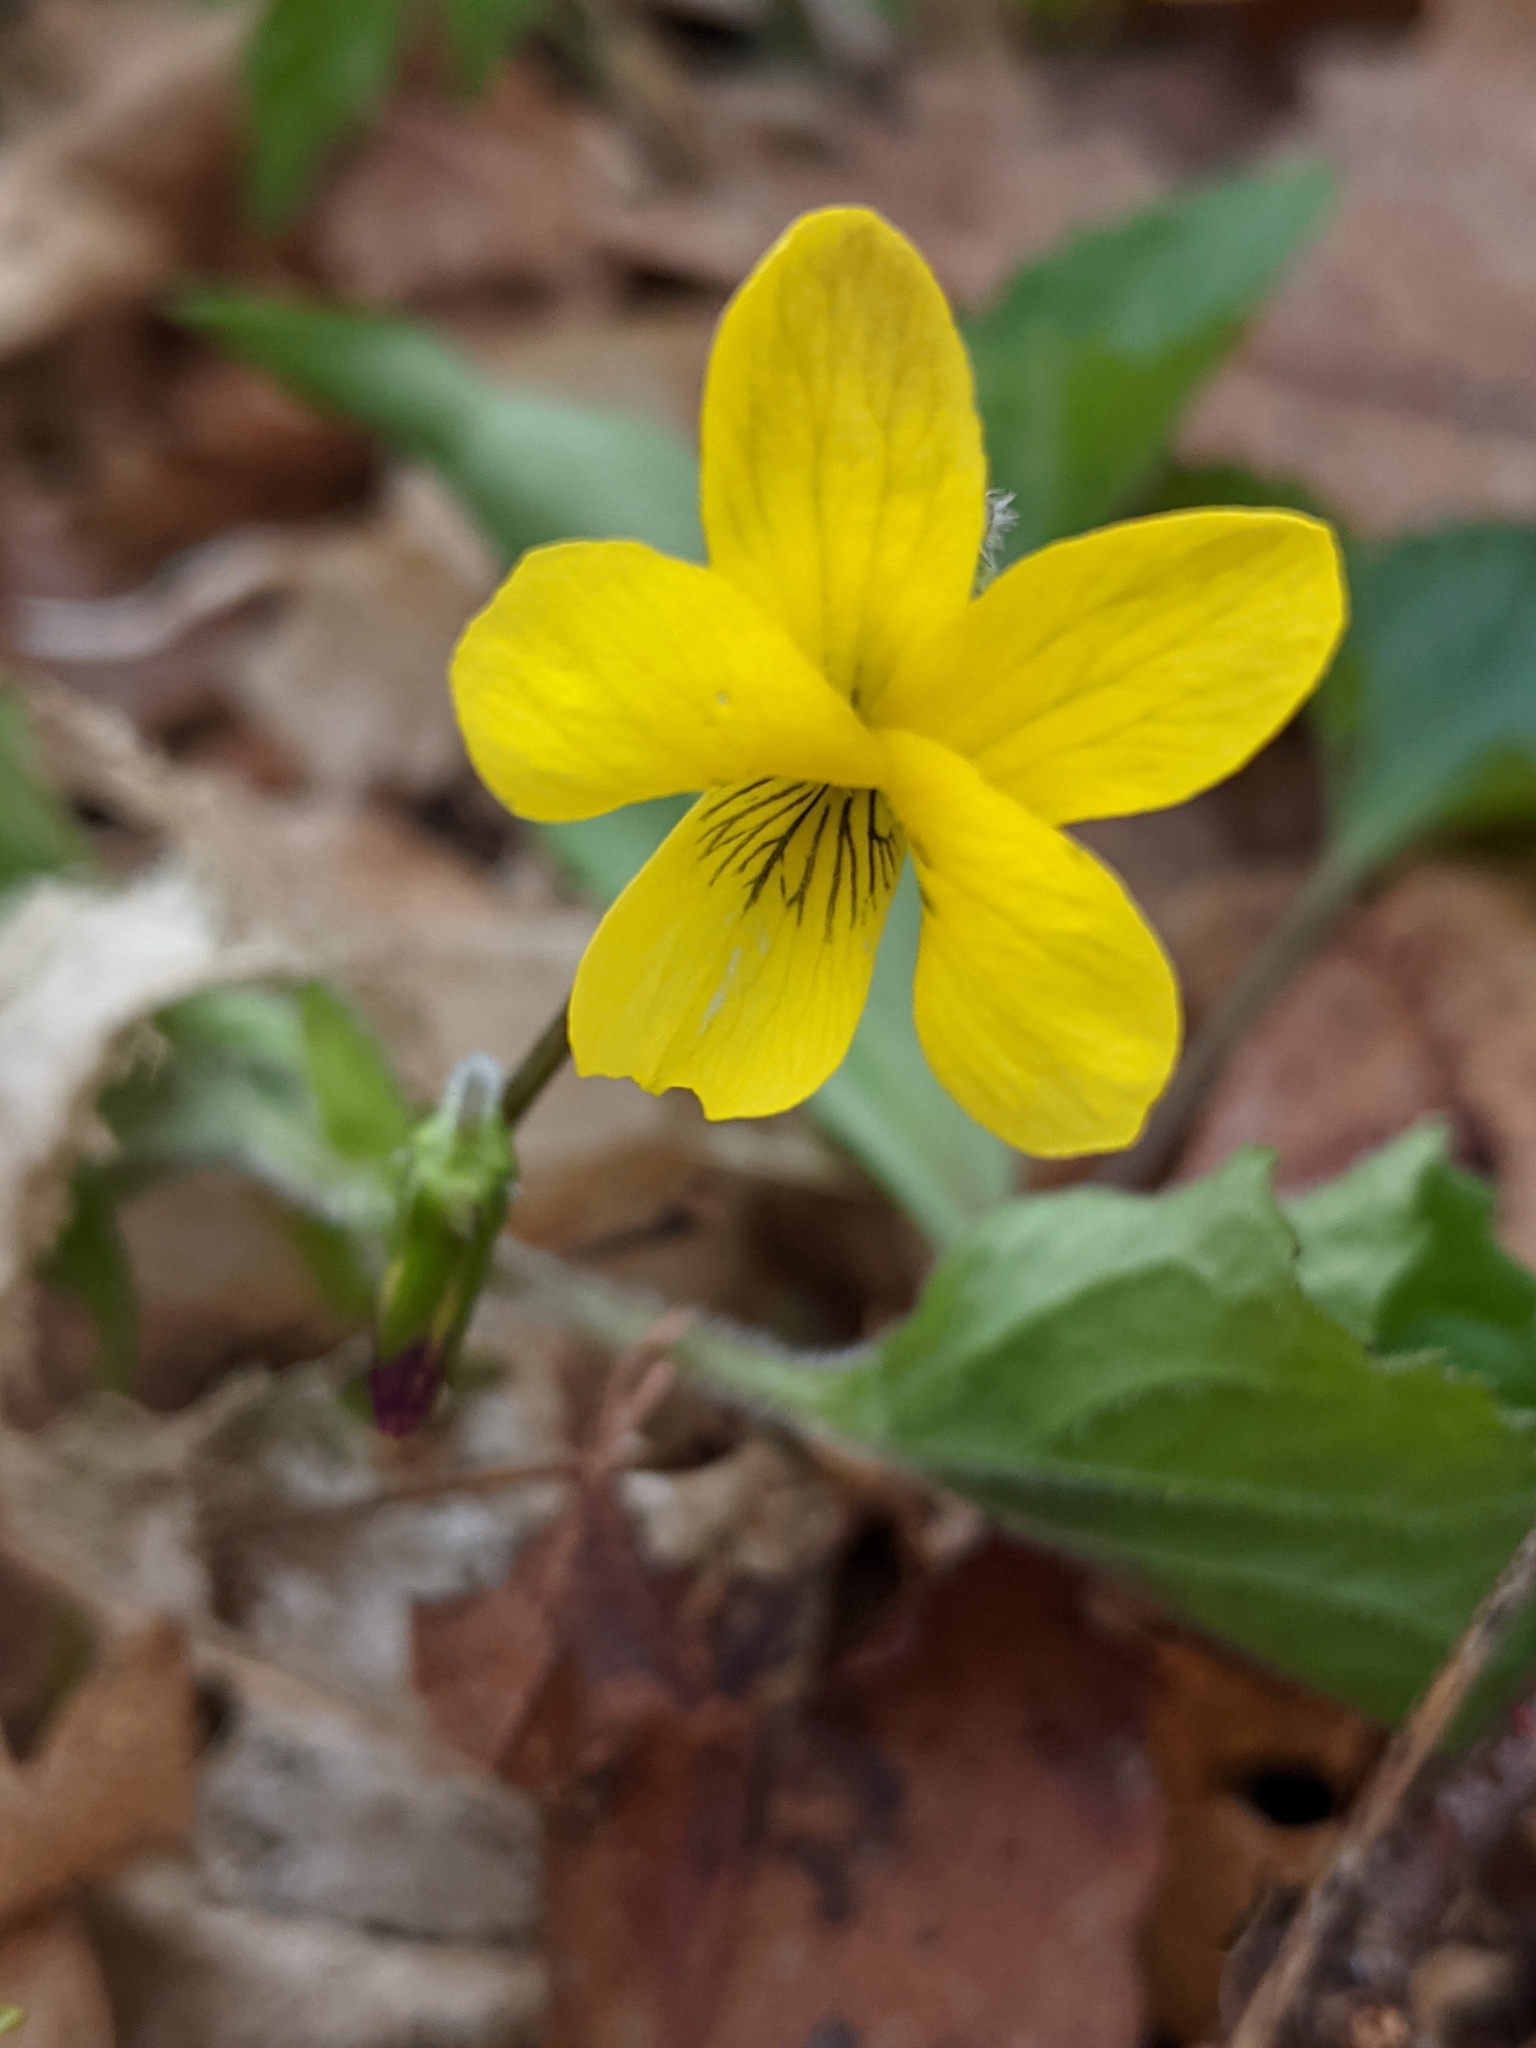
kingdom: Plantae
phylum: Tracheophyta
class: Magnoliopsida
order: Malpighiales
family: Violaceae
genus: Viola
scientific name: Viola eriocarpa
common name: Smooth yellow violet
